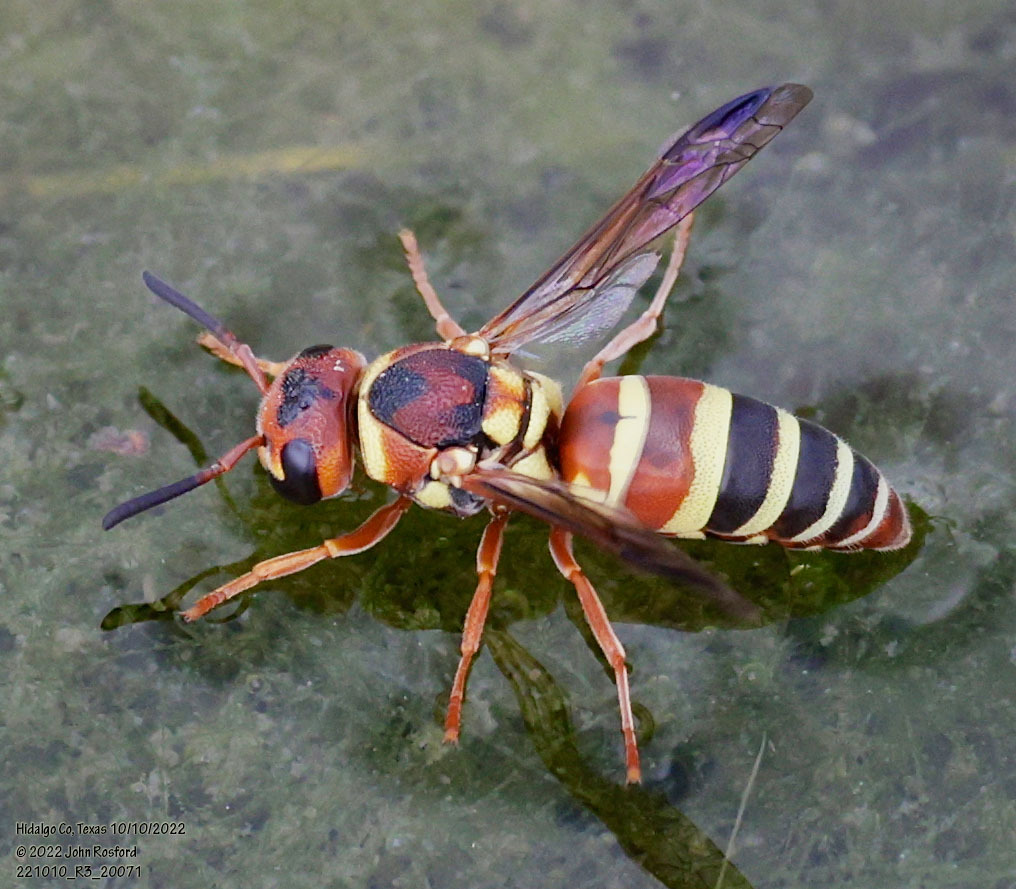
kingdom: Animalia
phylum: Arthropoda
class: Insecta
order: Hymenoptera
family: Eumenidae
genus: Euodynerus
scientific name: Euodynerus annulatus
